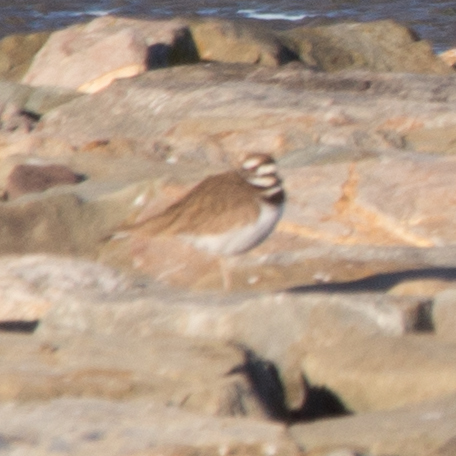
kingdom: Animalia
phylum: Chordata
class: Aves
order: Charadriiformes
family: Charadriidae
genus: Charadrius
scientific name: Charadrius vociferus
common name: Killdeer
